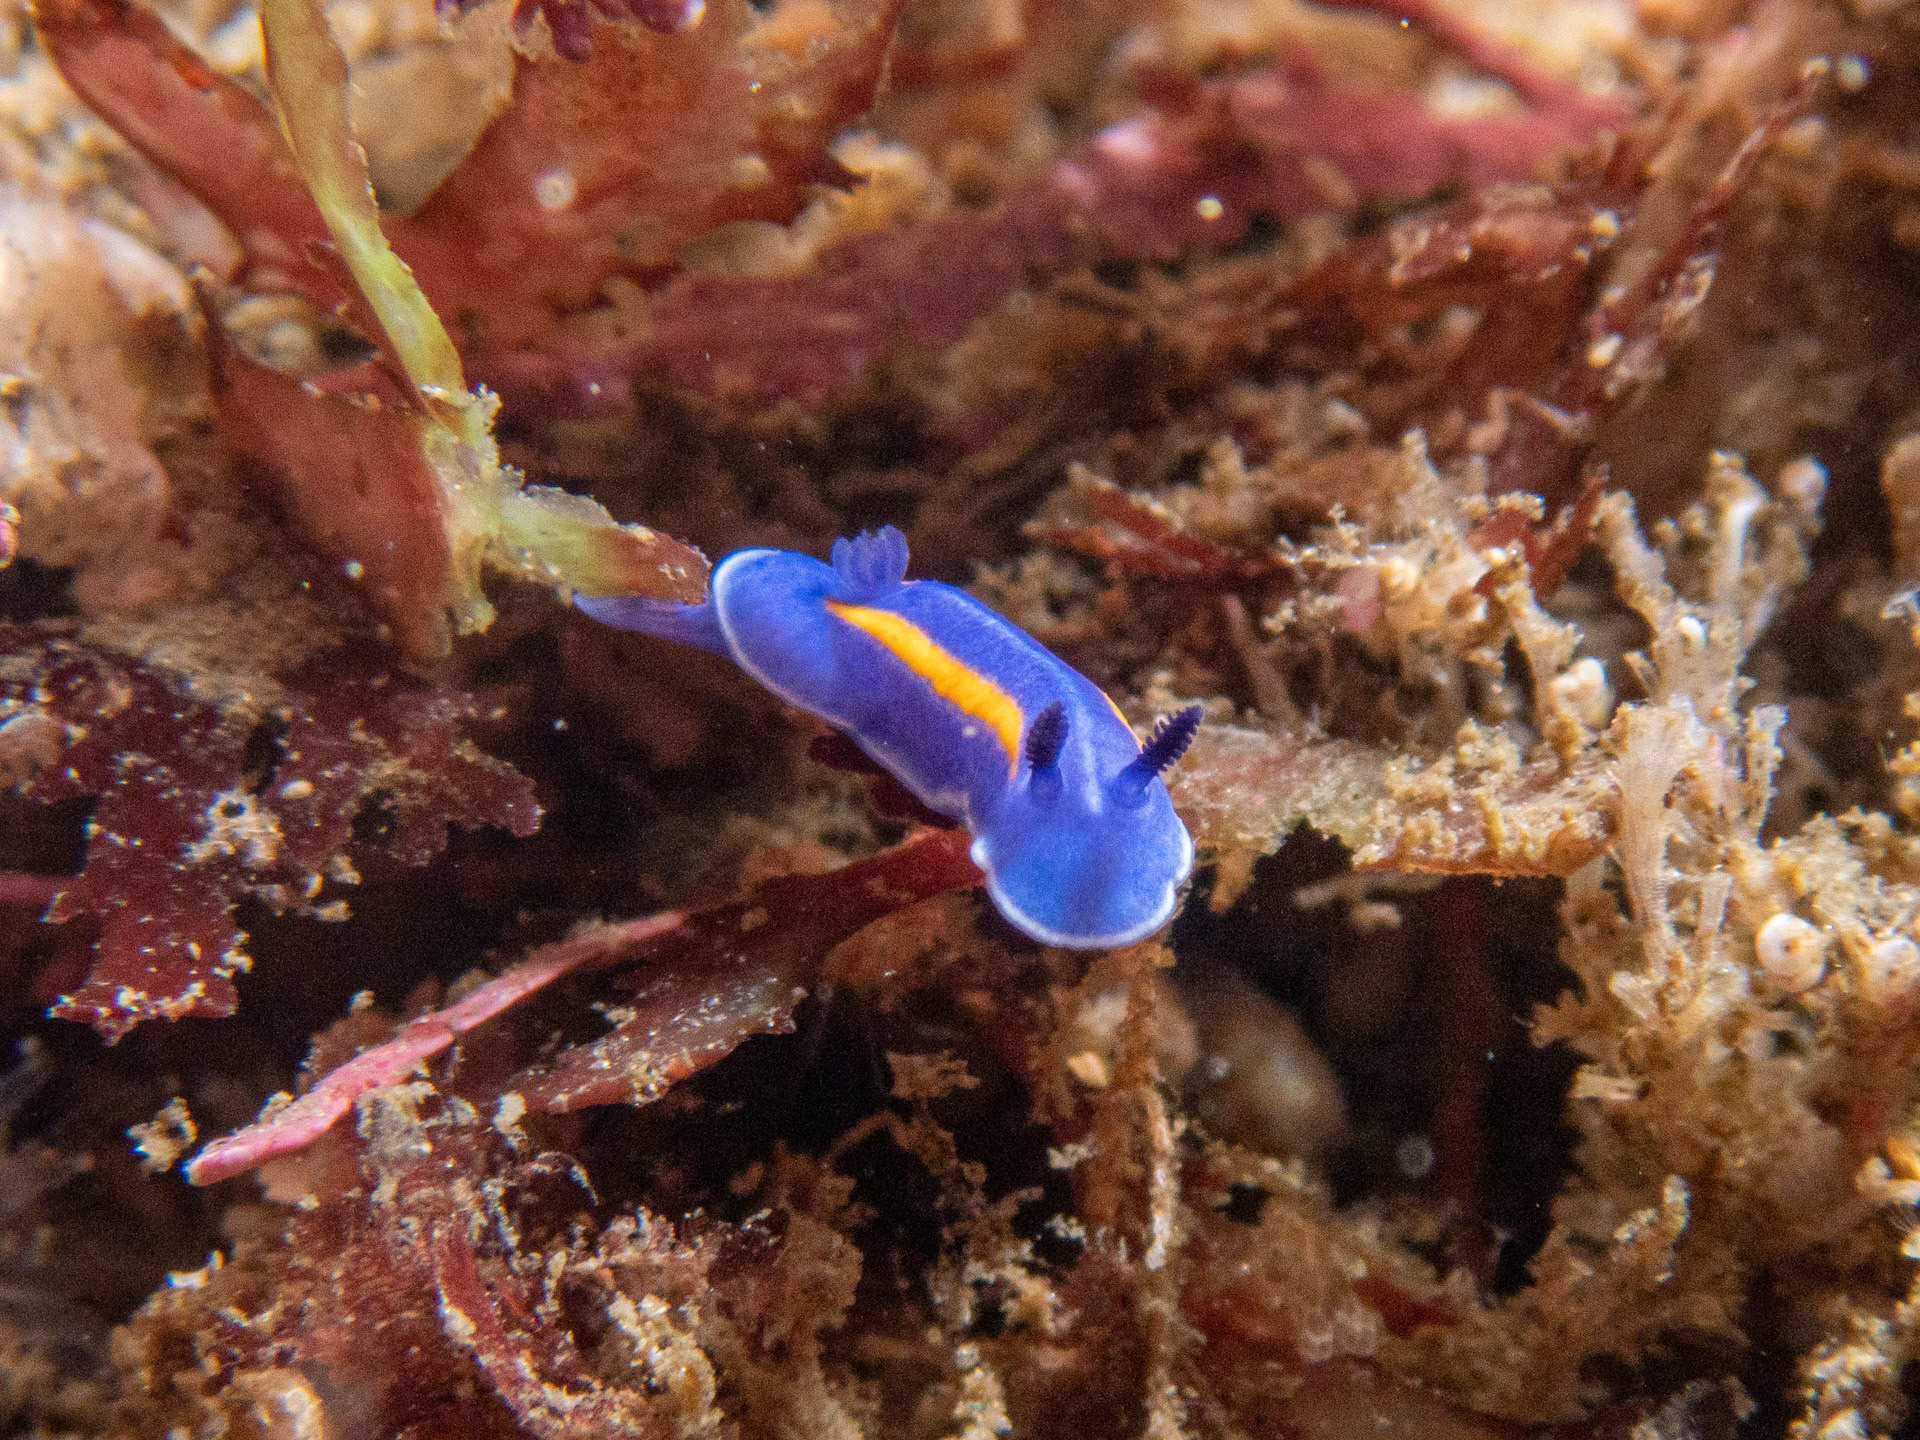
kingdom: Animalia
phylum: Mollusca
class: Gastropoda
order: Nudibranchia
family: Chromodorididae
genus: Felimare
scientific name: Felimare porterae
